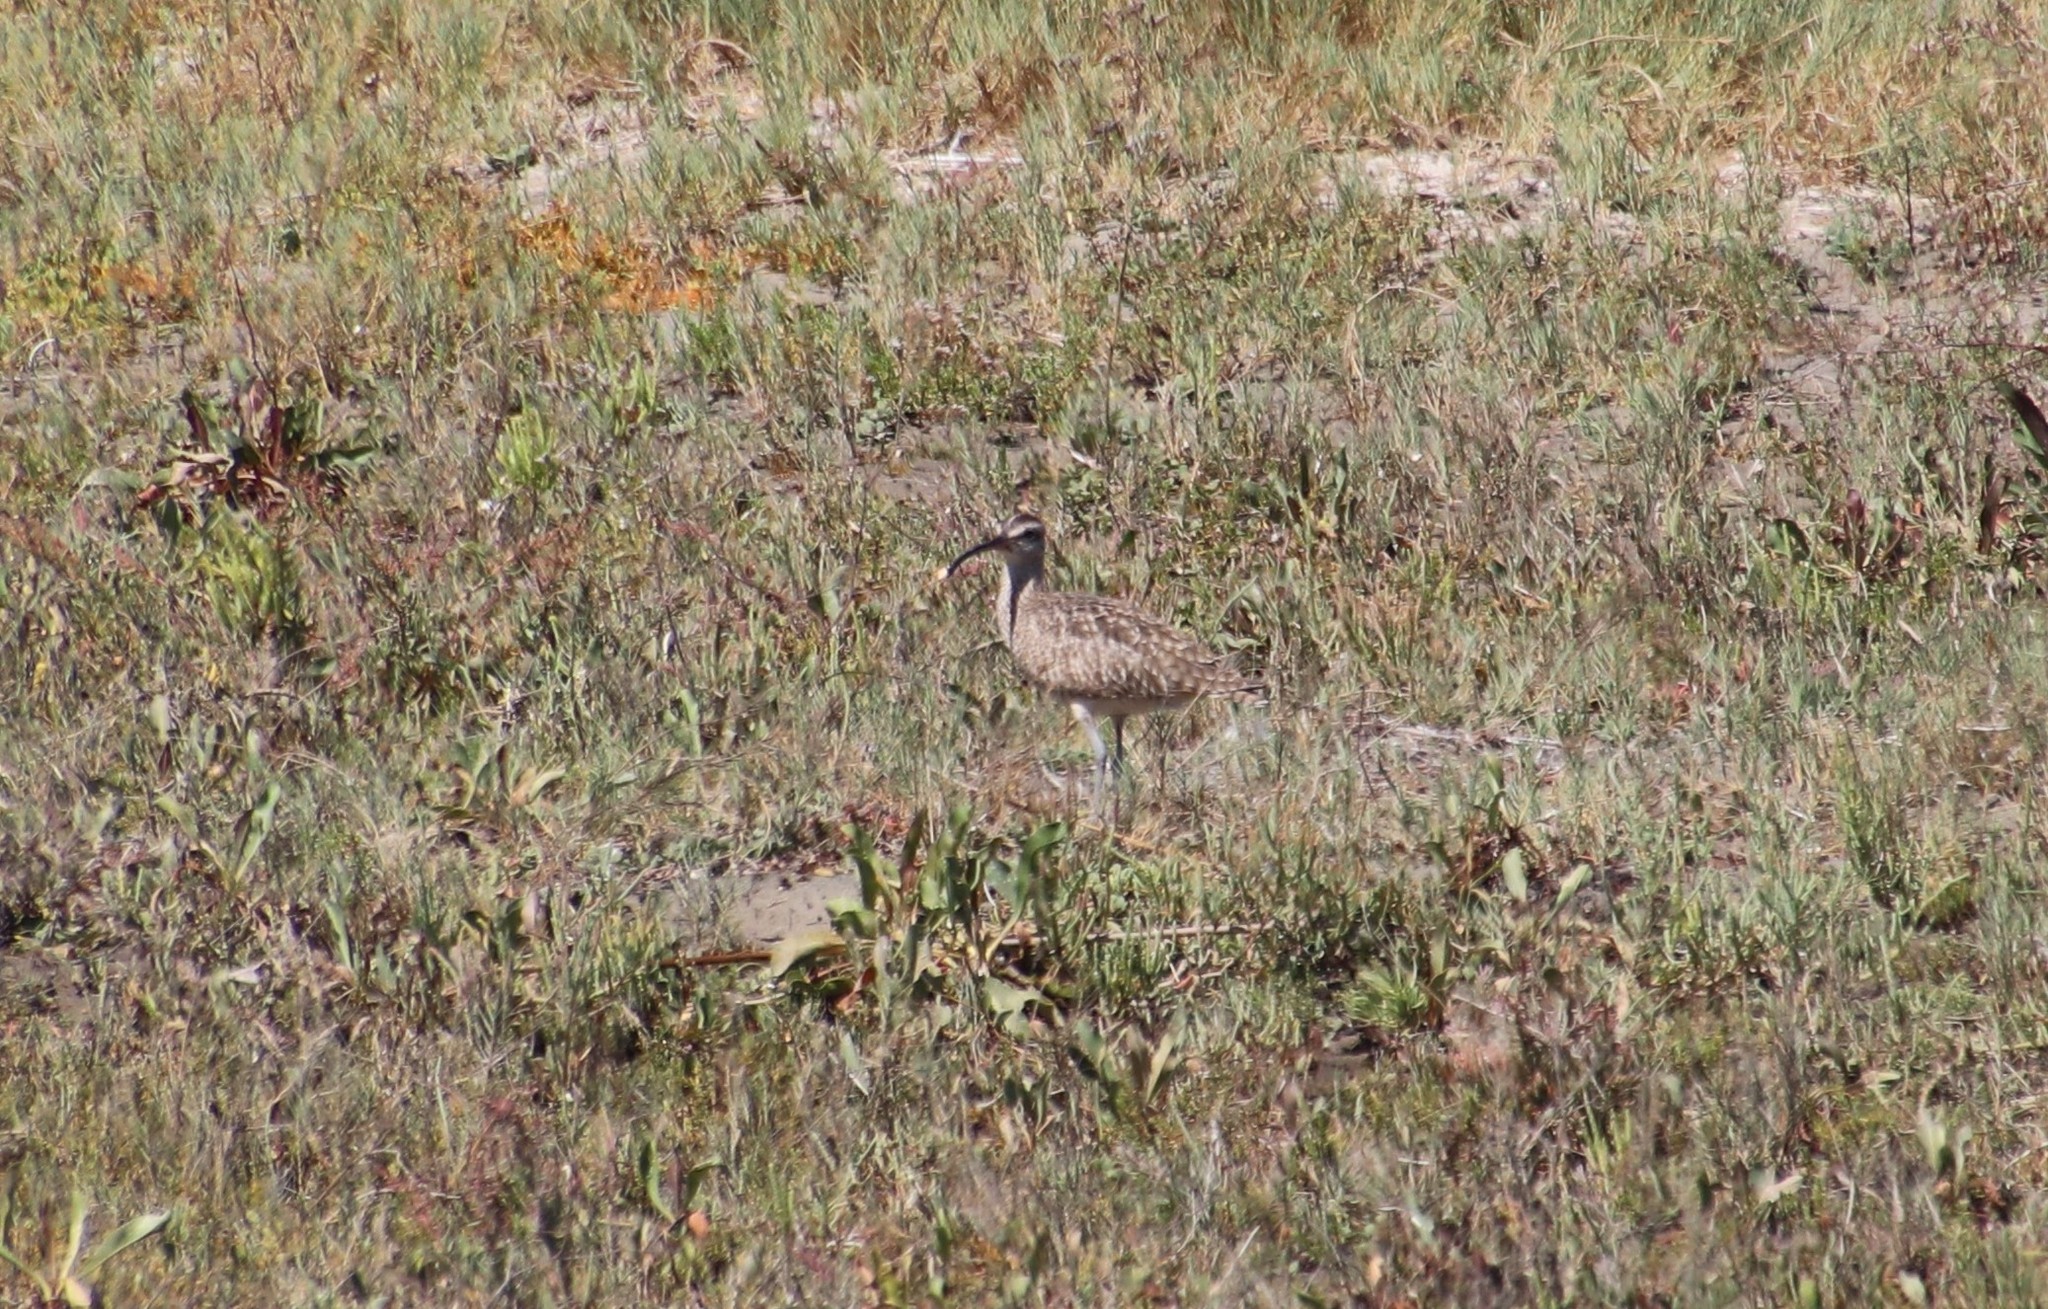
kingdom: Animalia
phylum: Chordata
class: Aves
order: Charadriiformes
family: Scolopacidae
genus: Numenius
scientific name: Numenius phaeopus
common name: Whimbrel
